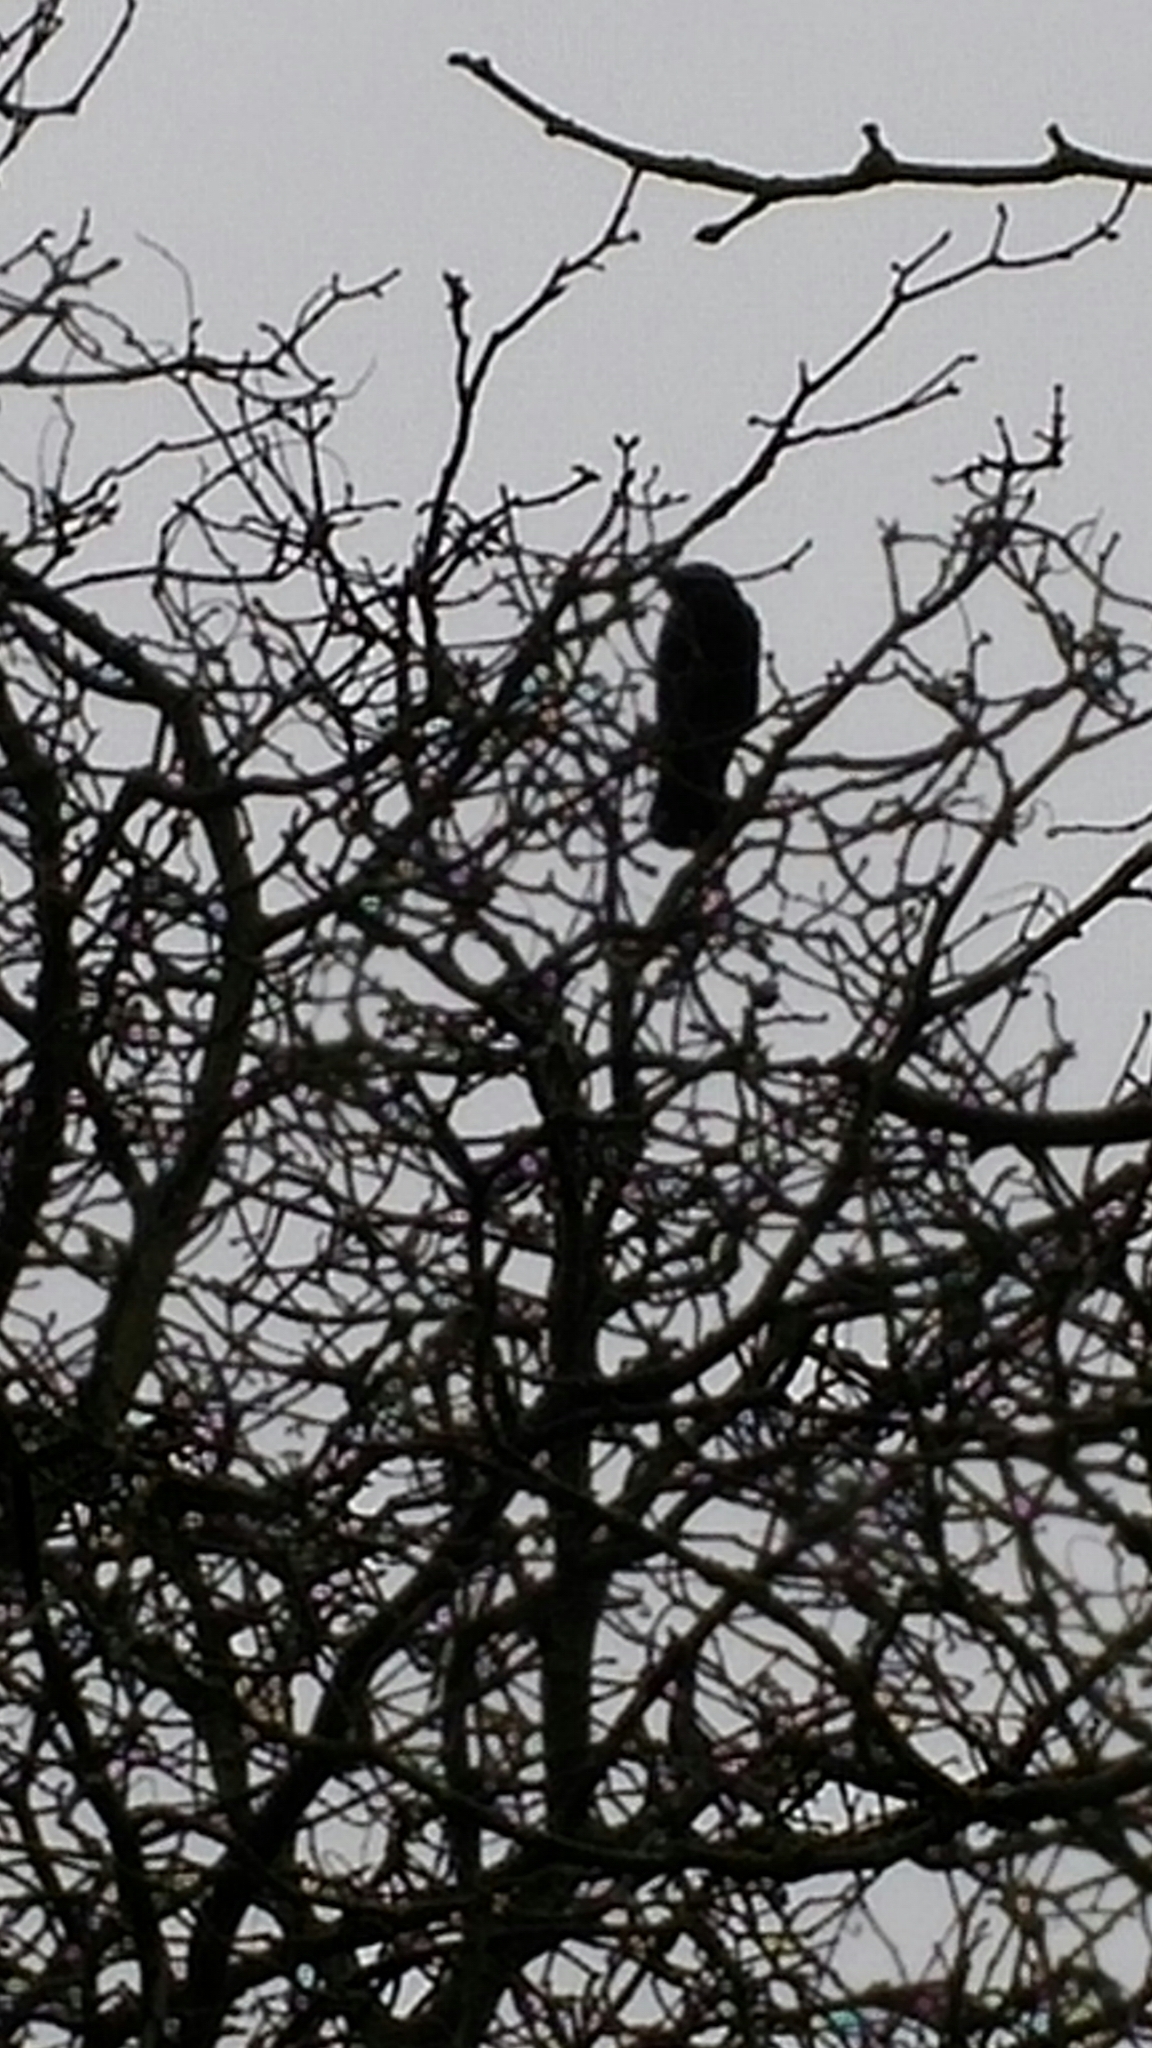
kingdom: Animalia
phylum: Chordata
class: Aves
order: Passeriformes
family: Corvidae
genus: Corvus
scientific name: Corvus corone
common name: Carrion crow
